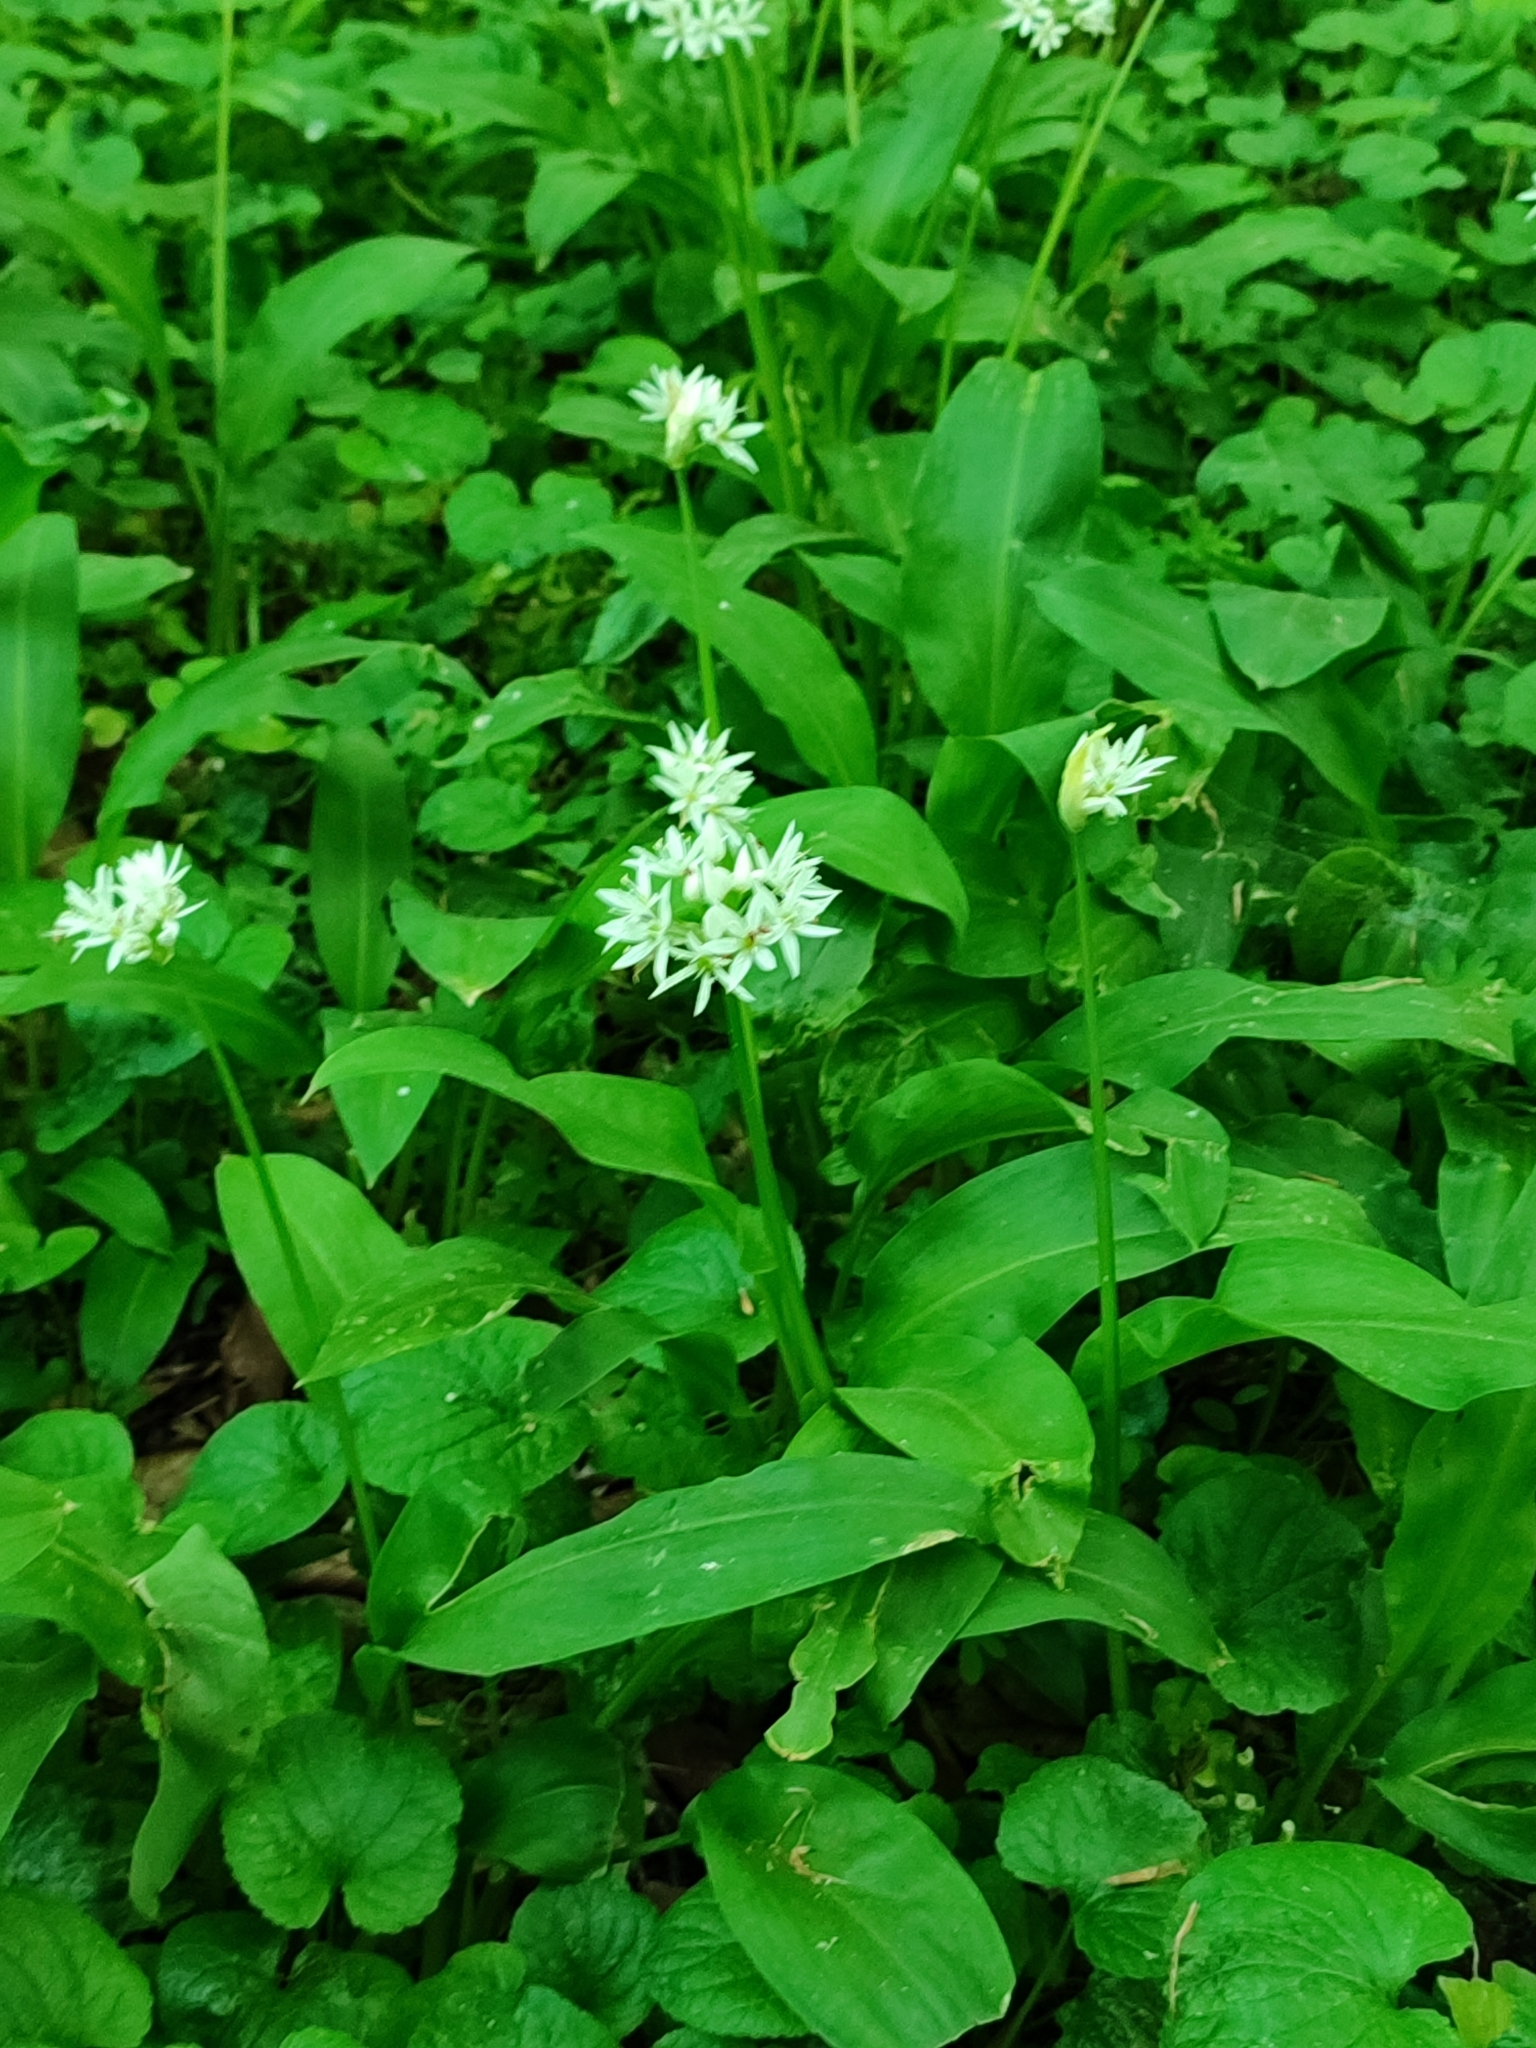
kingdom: Plantae
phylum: Tracheophyta
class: Liliopsida
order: Asparagales
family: Amaryllidaceae
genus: Allium
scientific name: Allium ursinum
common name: Ramsons
